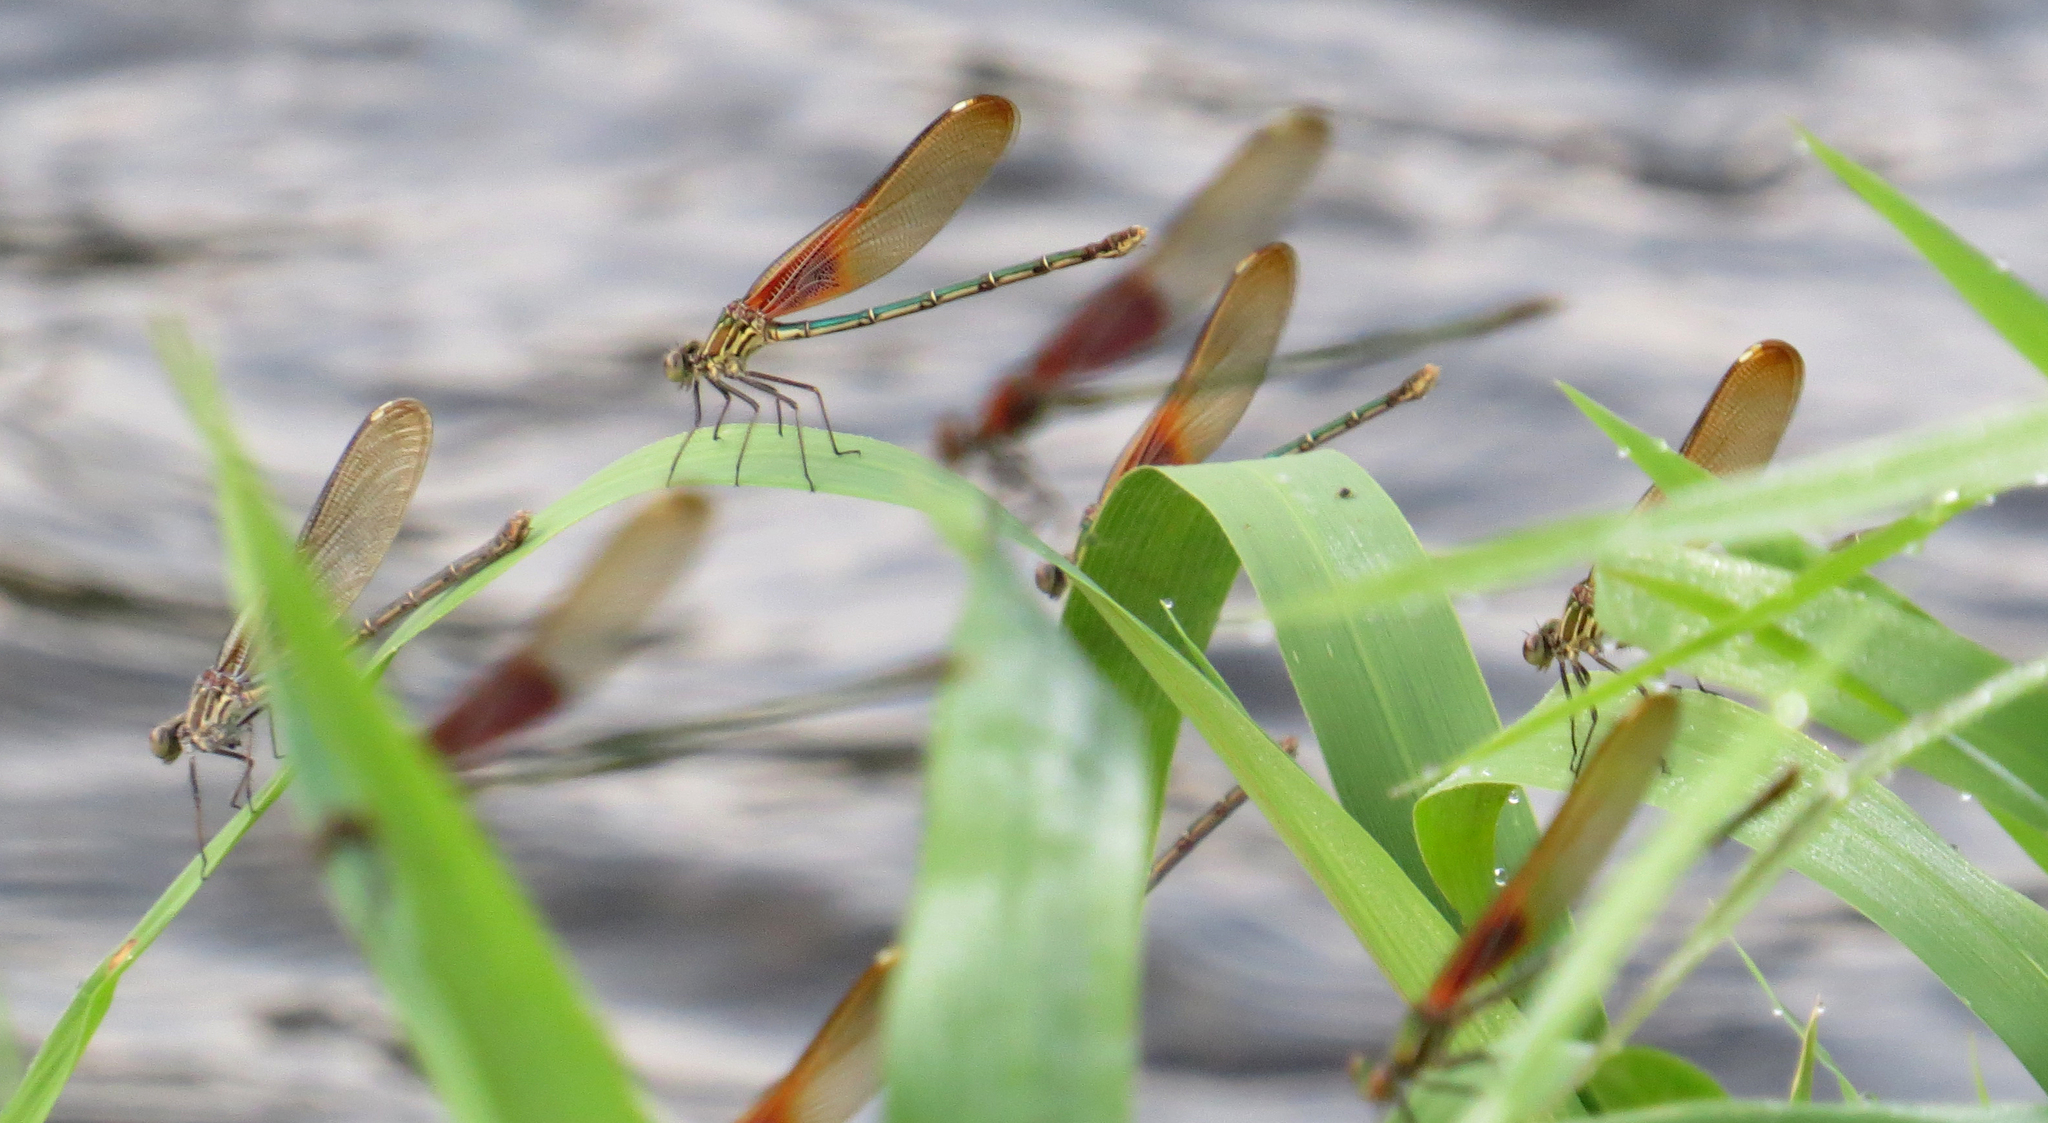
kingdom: Animalia
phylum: Arthropoda
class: Insecta
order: Odonata
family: Calopterygidae
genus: Hetaerina
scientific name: Hetaerina americana
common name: American rubyspot
